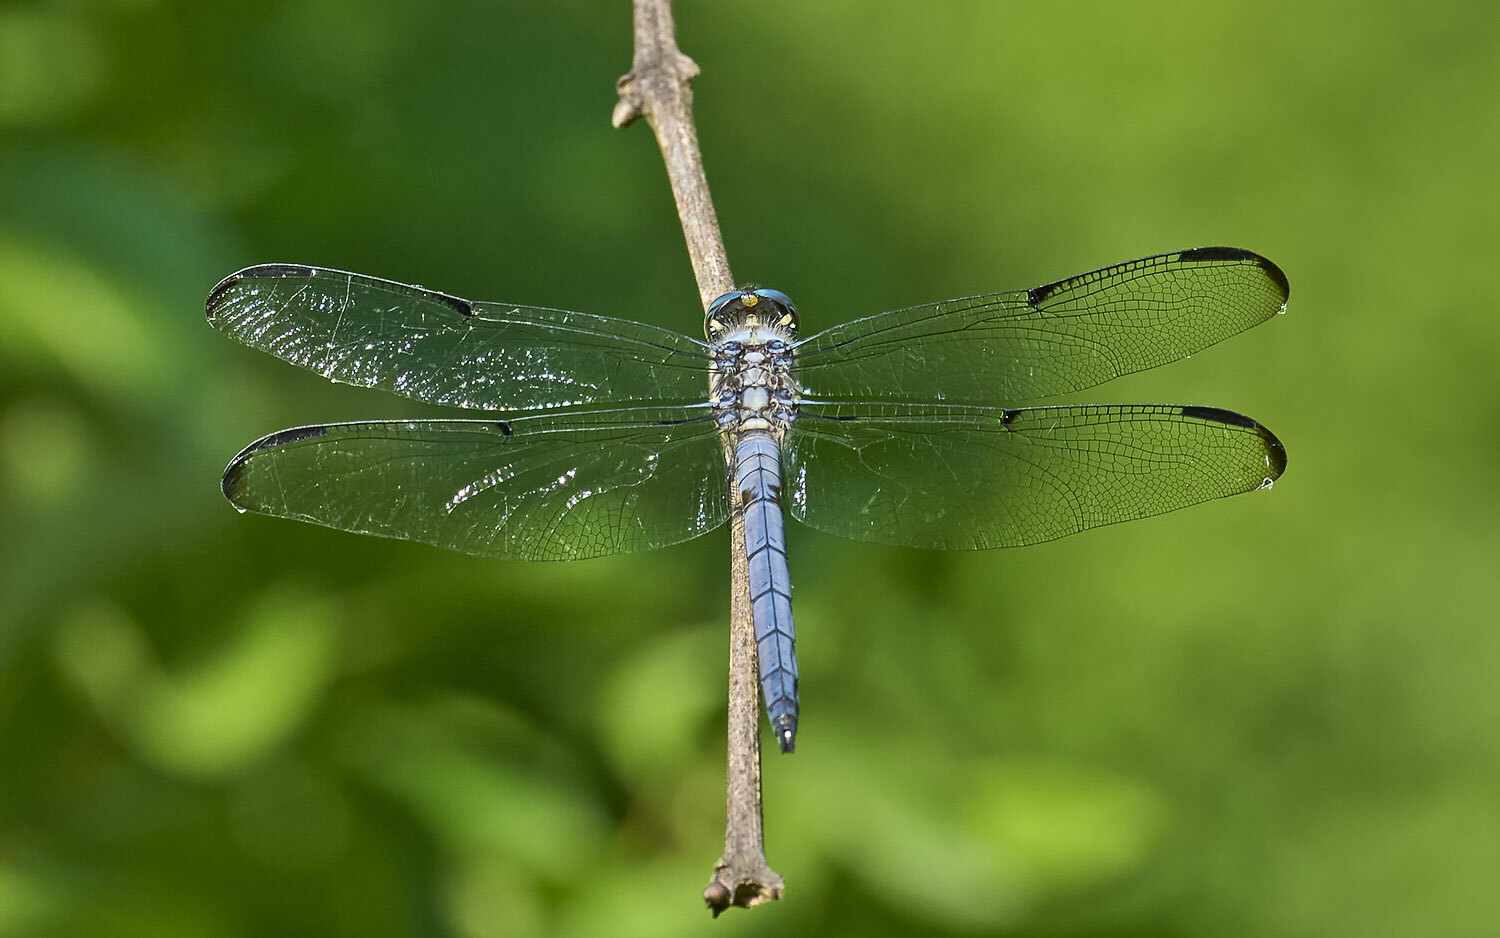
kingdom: Animalia
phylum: Arthropoda
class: Insecta
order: Odonata
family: Libellulidae
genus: Libellula
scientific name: Libellula vibrans
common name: Great blue skimmer
